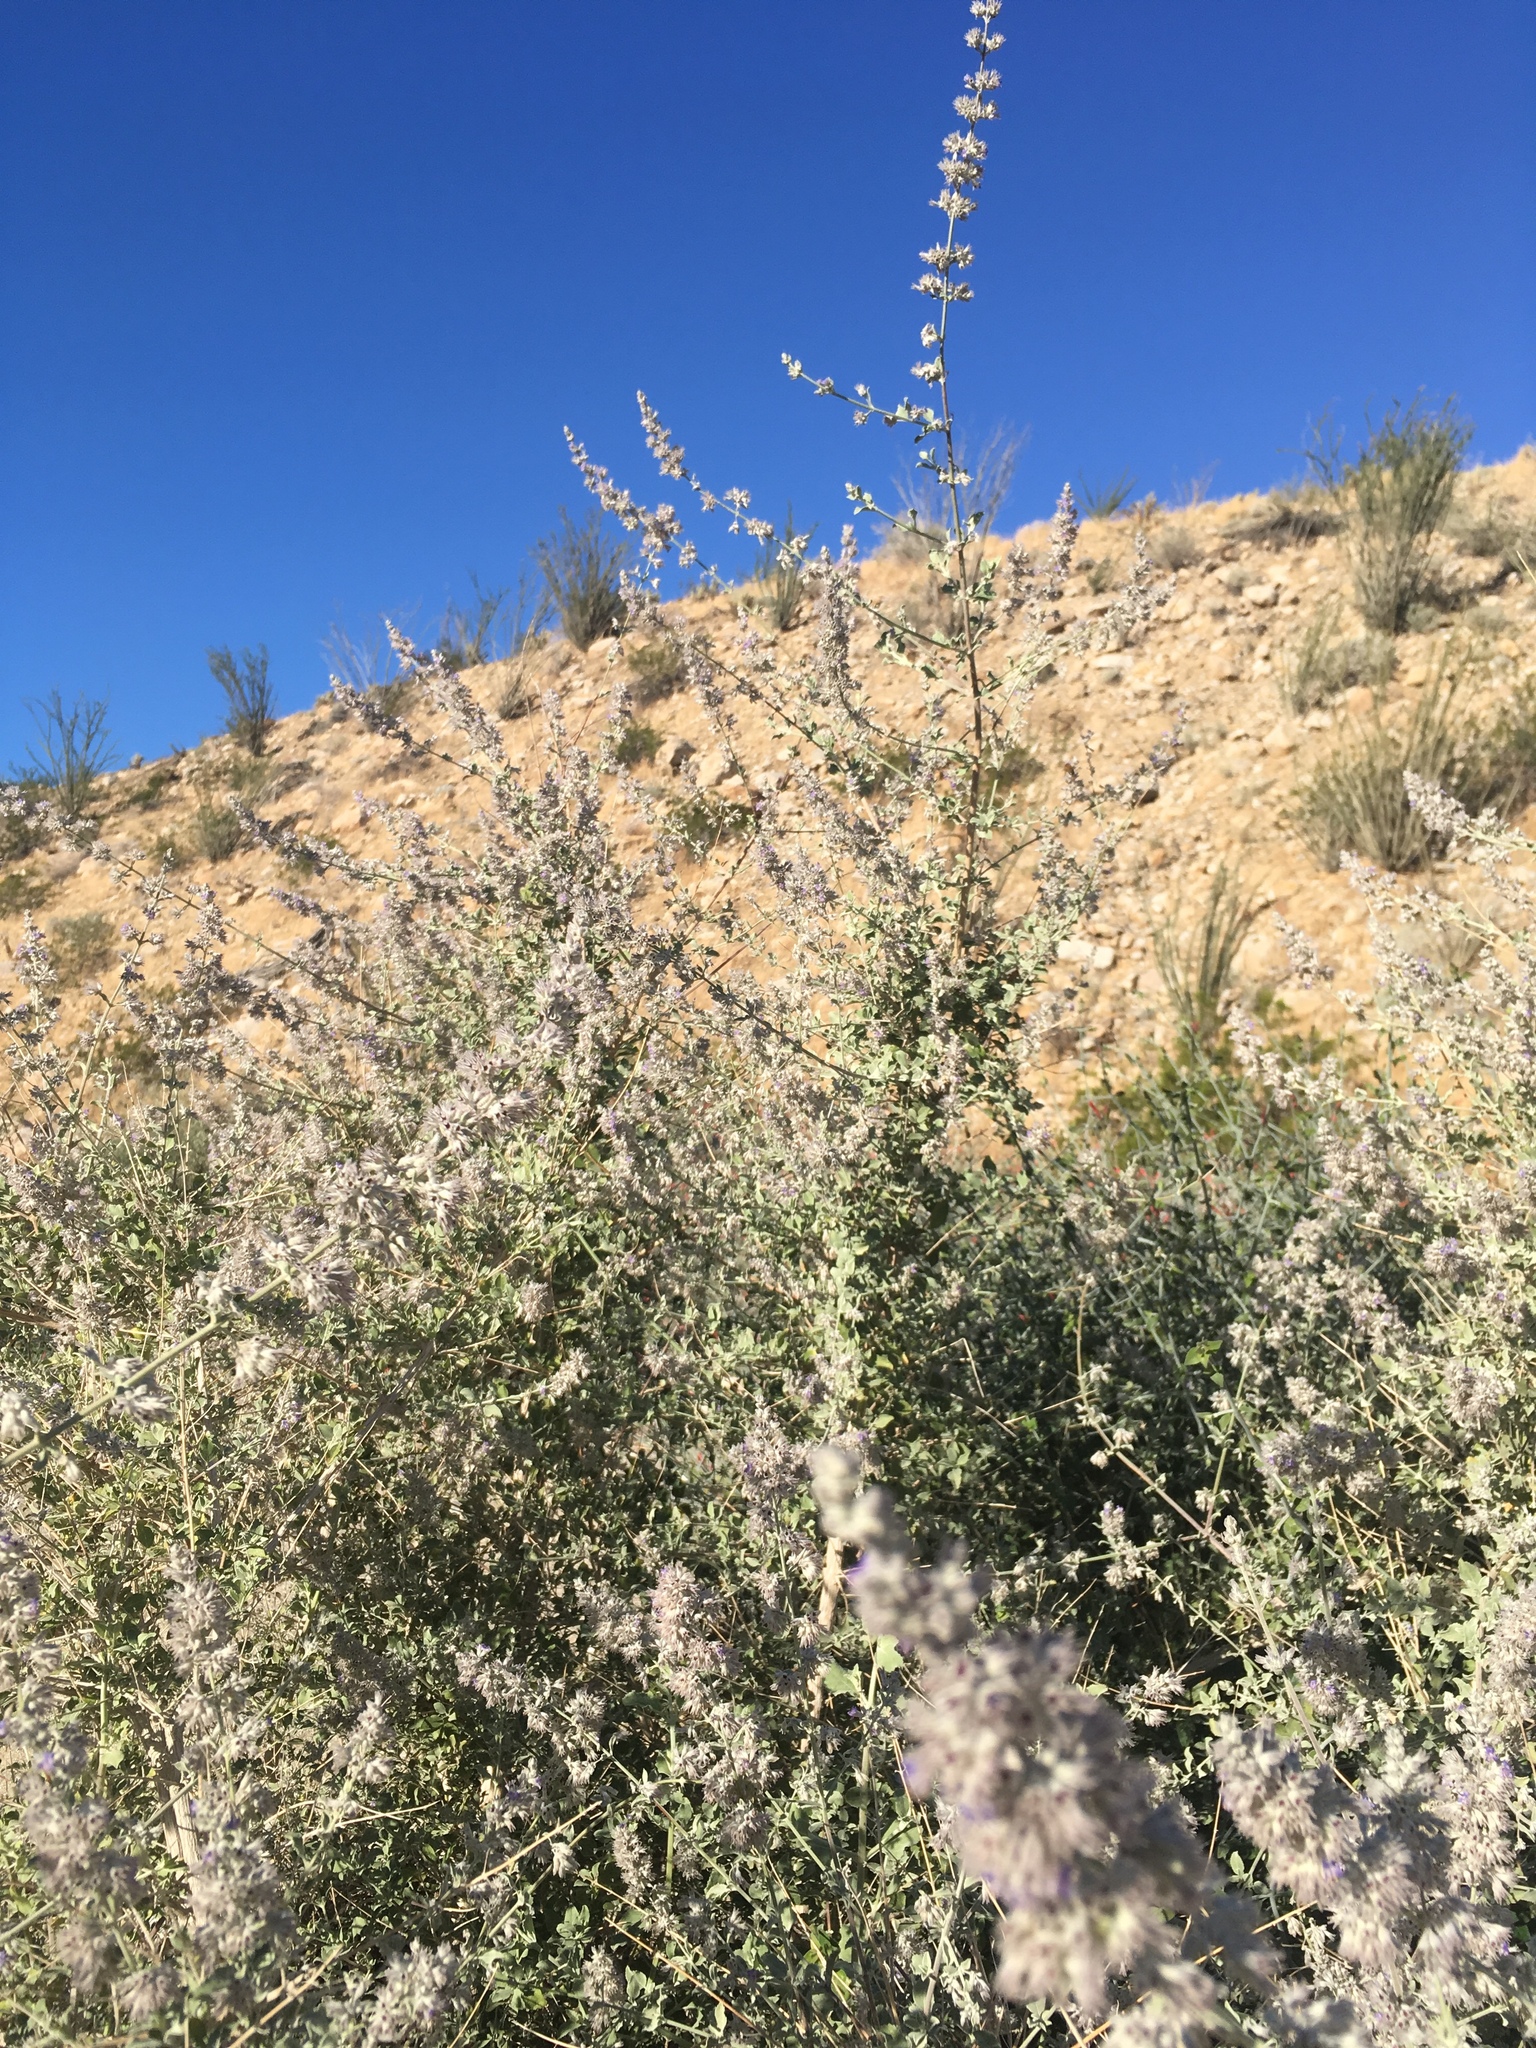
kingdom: Plantae
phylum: Tracheophyta
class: Magnoliopsida
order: Lamiales
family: Lamiaceae
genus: Condea
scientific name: Condea emoryi
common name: Chia
